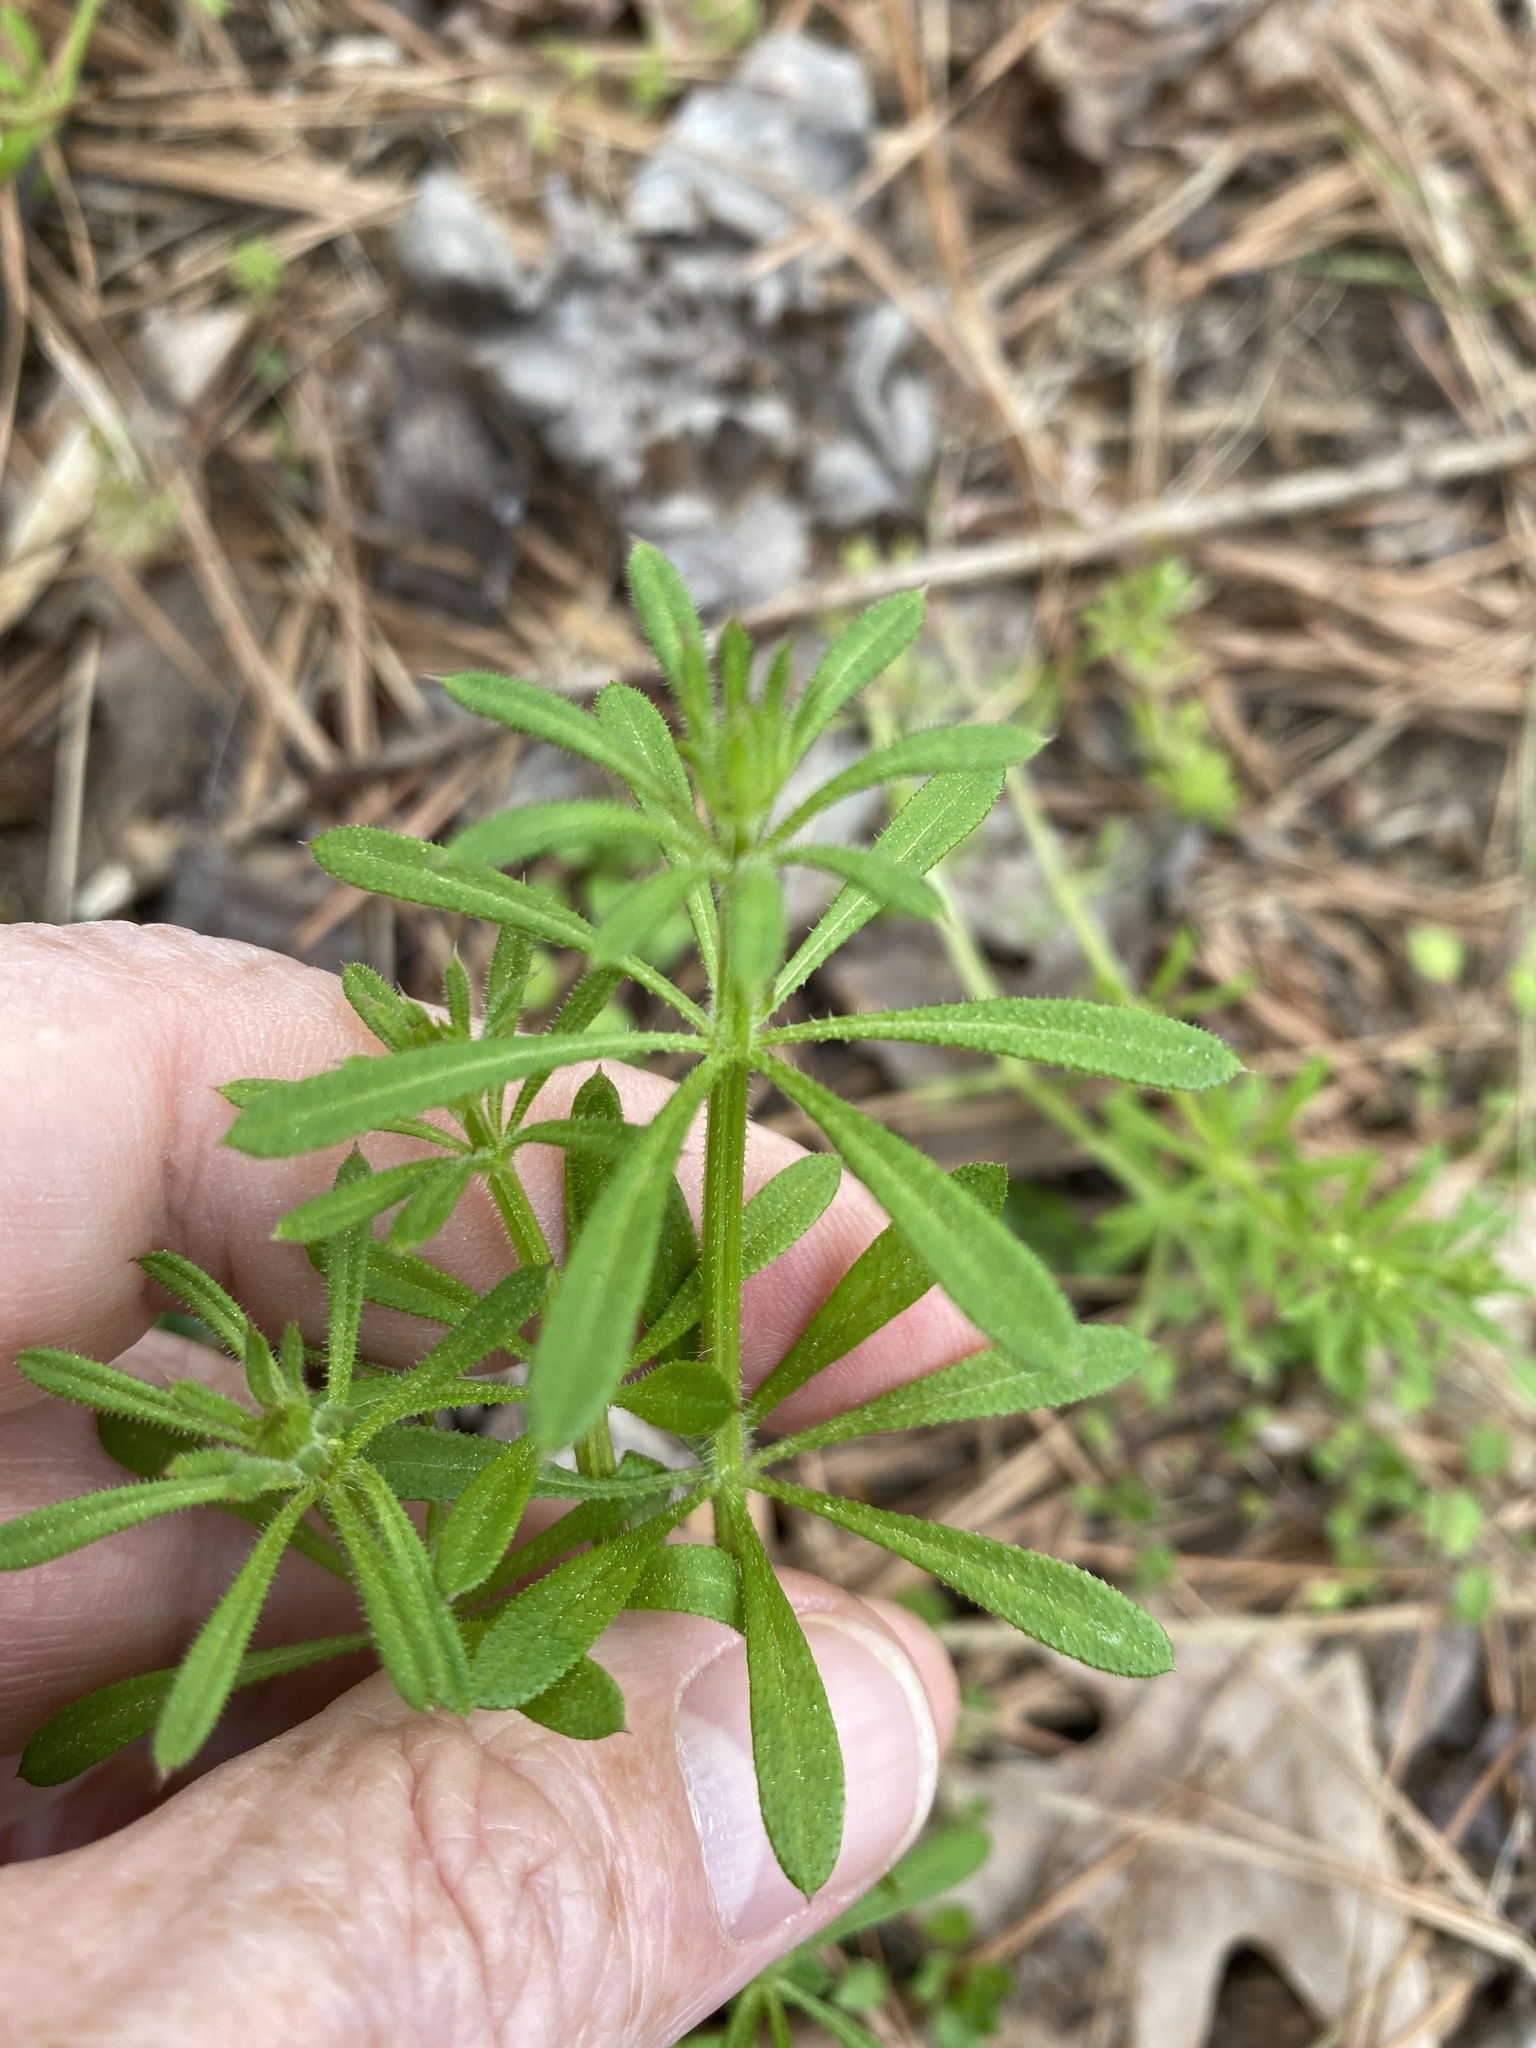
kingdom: Plantae
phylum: Tracheophyta
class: Magnoliopsida
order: Gentianales
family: Rubiaceae
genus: Galium
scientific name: Galium aparine
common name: Cleavers
